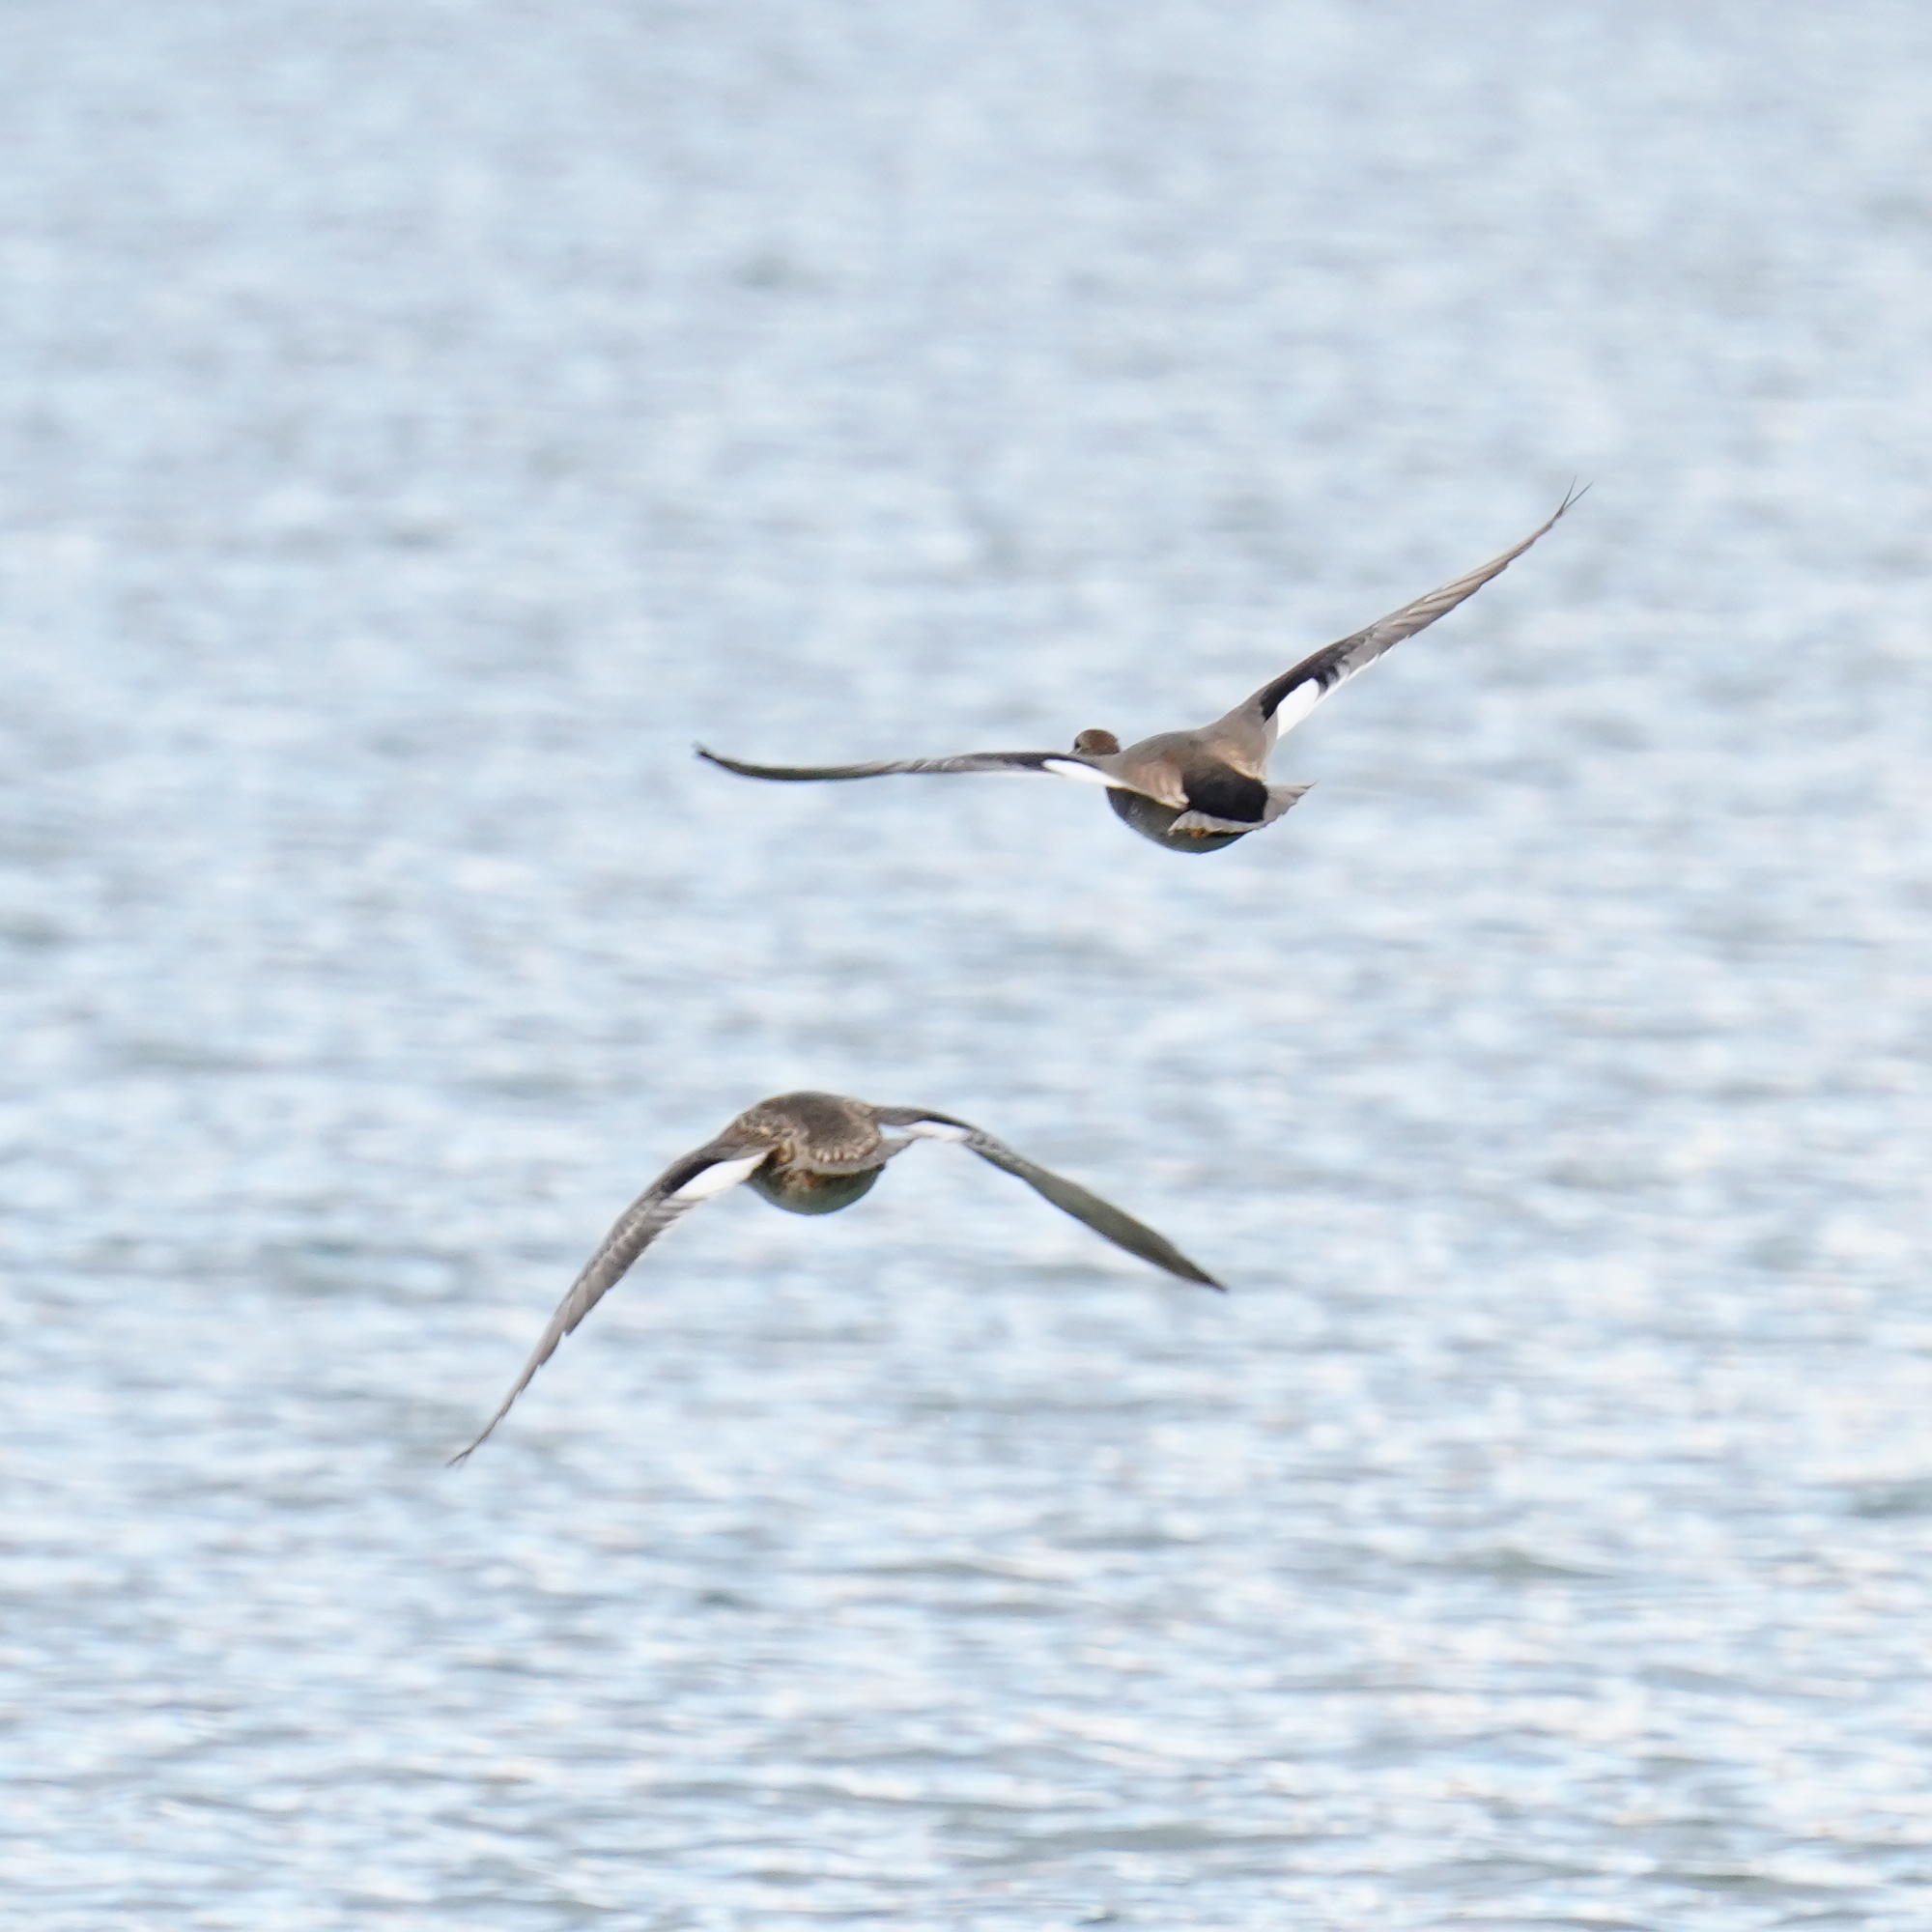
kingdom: Animalia
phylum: Chordata
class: Aves
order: Anseriformes
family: Anatidae
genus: Mareca
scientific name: Mareca strepera
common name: Gadwall
